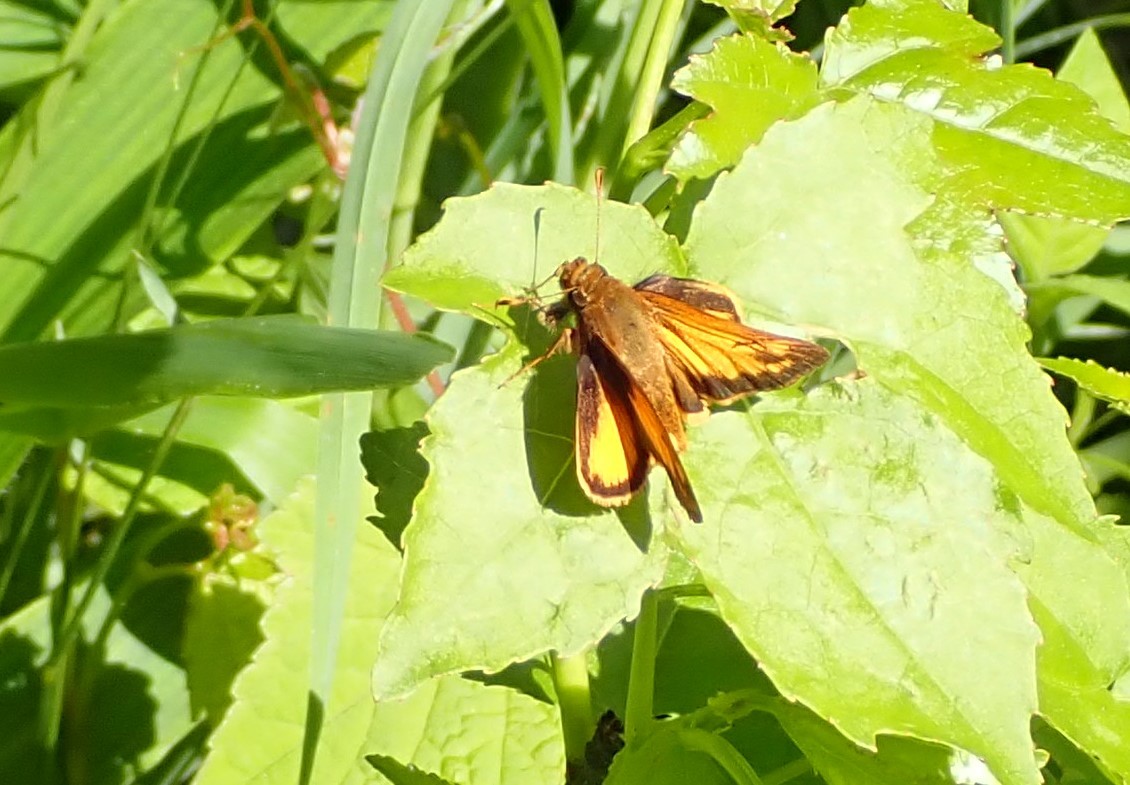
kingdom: Animalia
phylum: Arthropoda
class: Insecta
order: Lepidoptera
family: Hesperiidae
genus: Lon
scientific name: Lon zabulon
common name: Zabulon skipper
